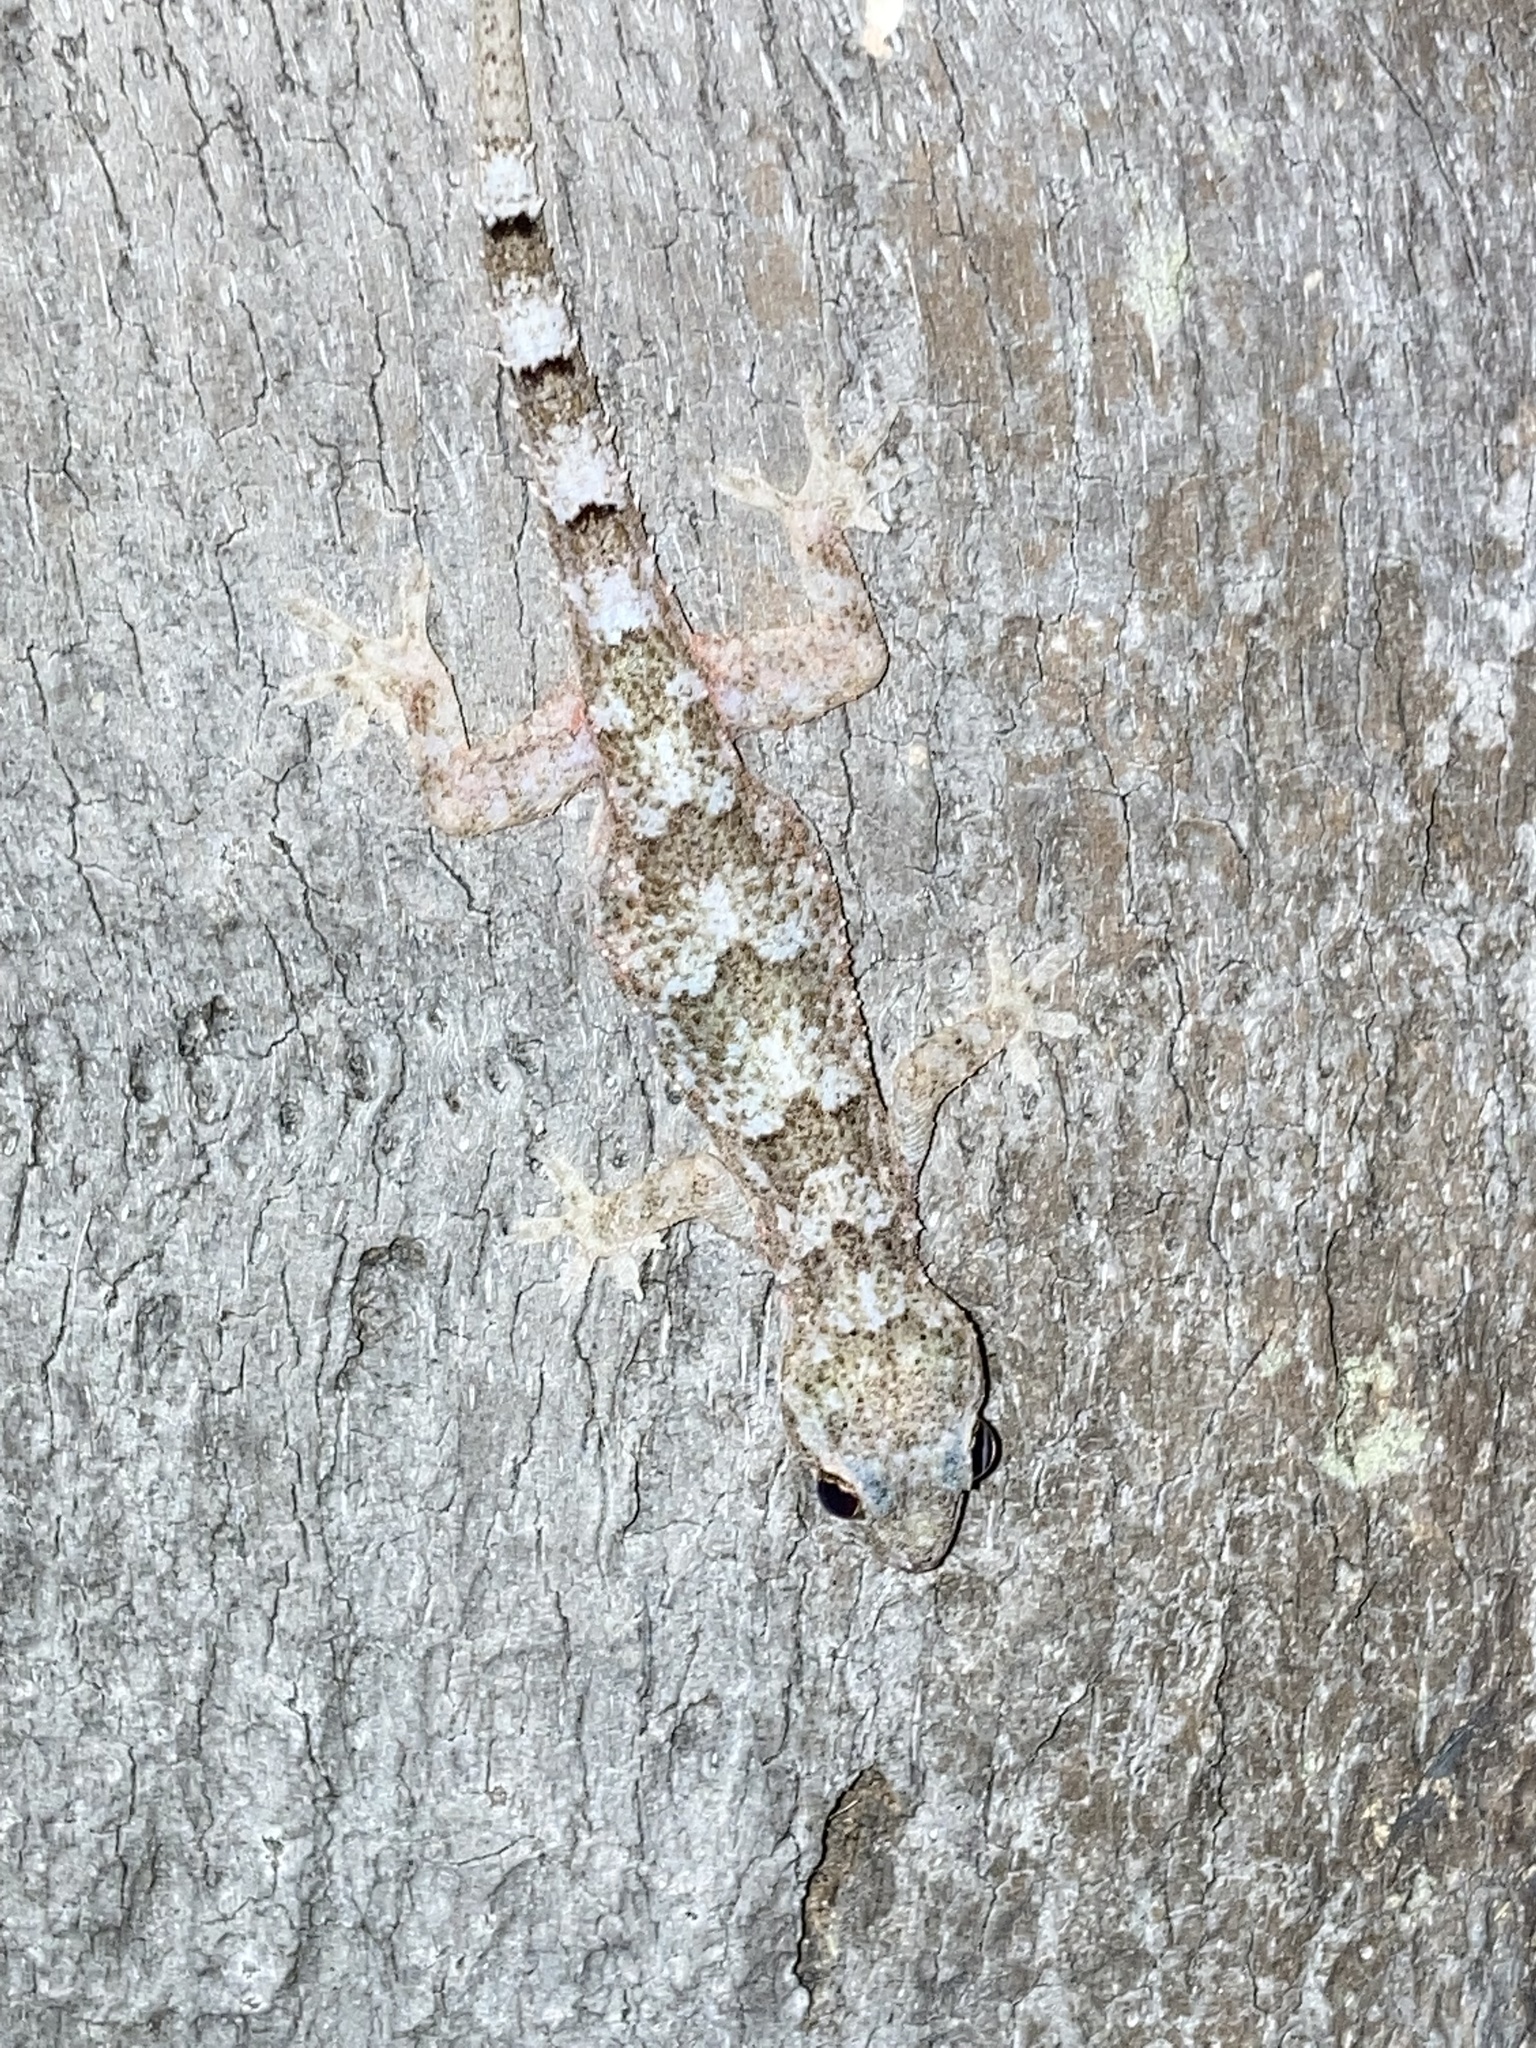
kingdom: Animalia
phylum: Chordata
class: Squamata
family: Gekkonidae
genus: Hemidactylus
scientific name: Hemidactylus mabouia
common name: House gecko
